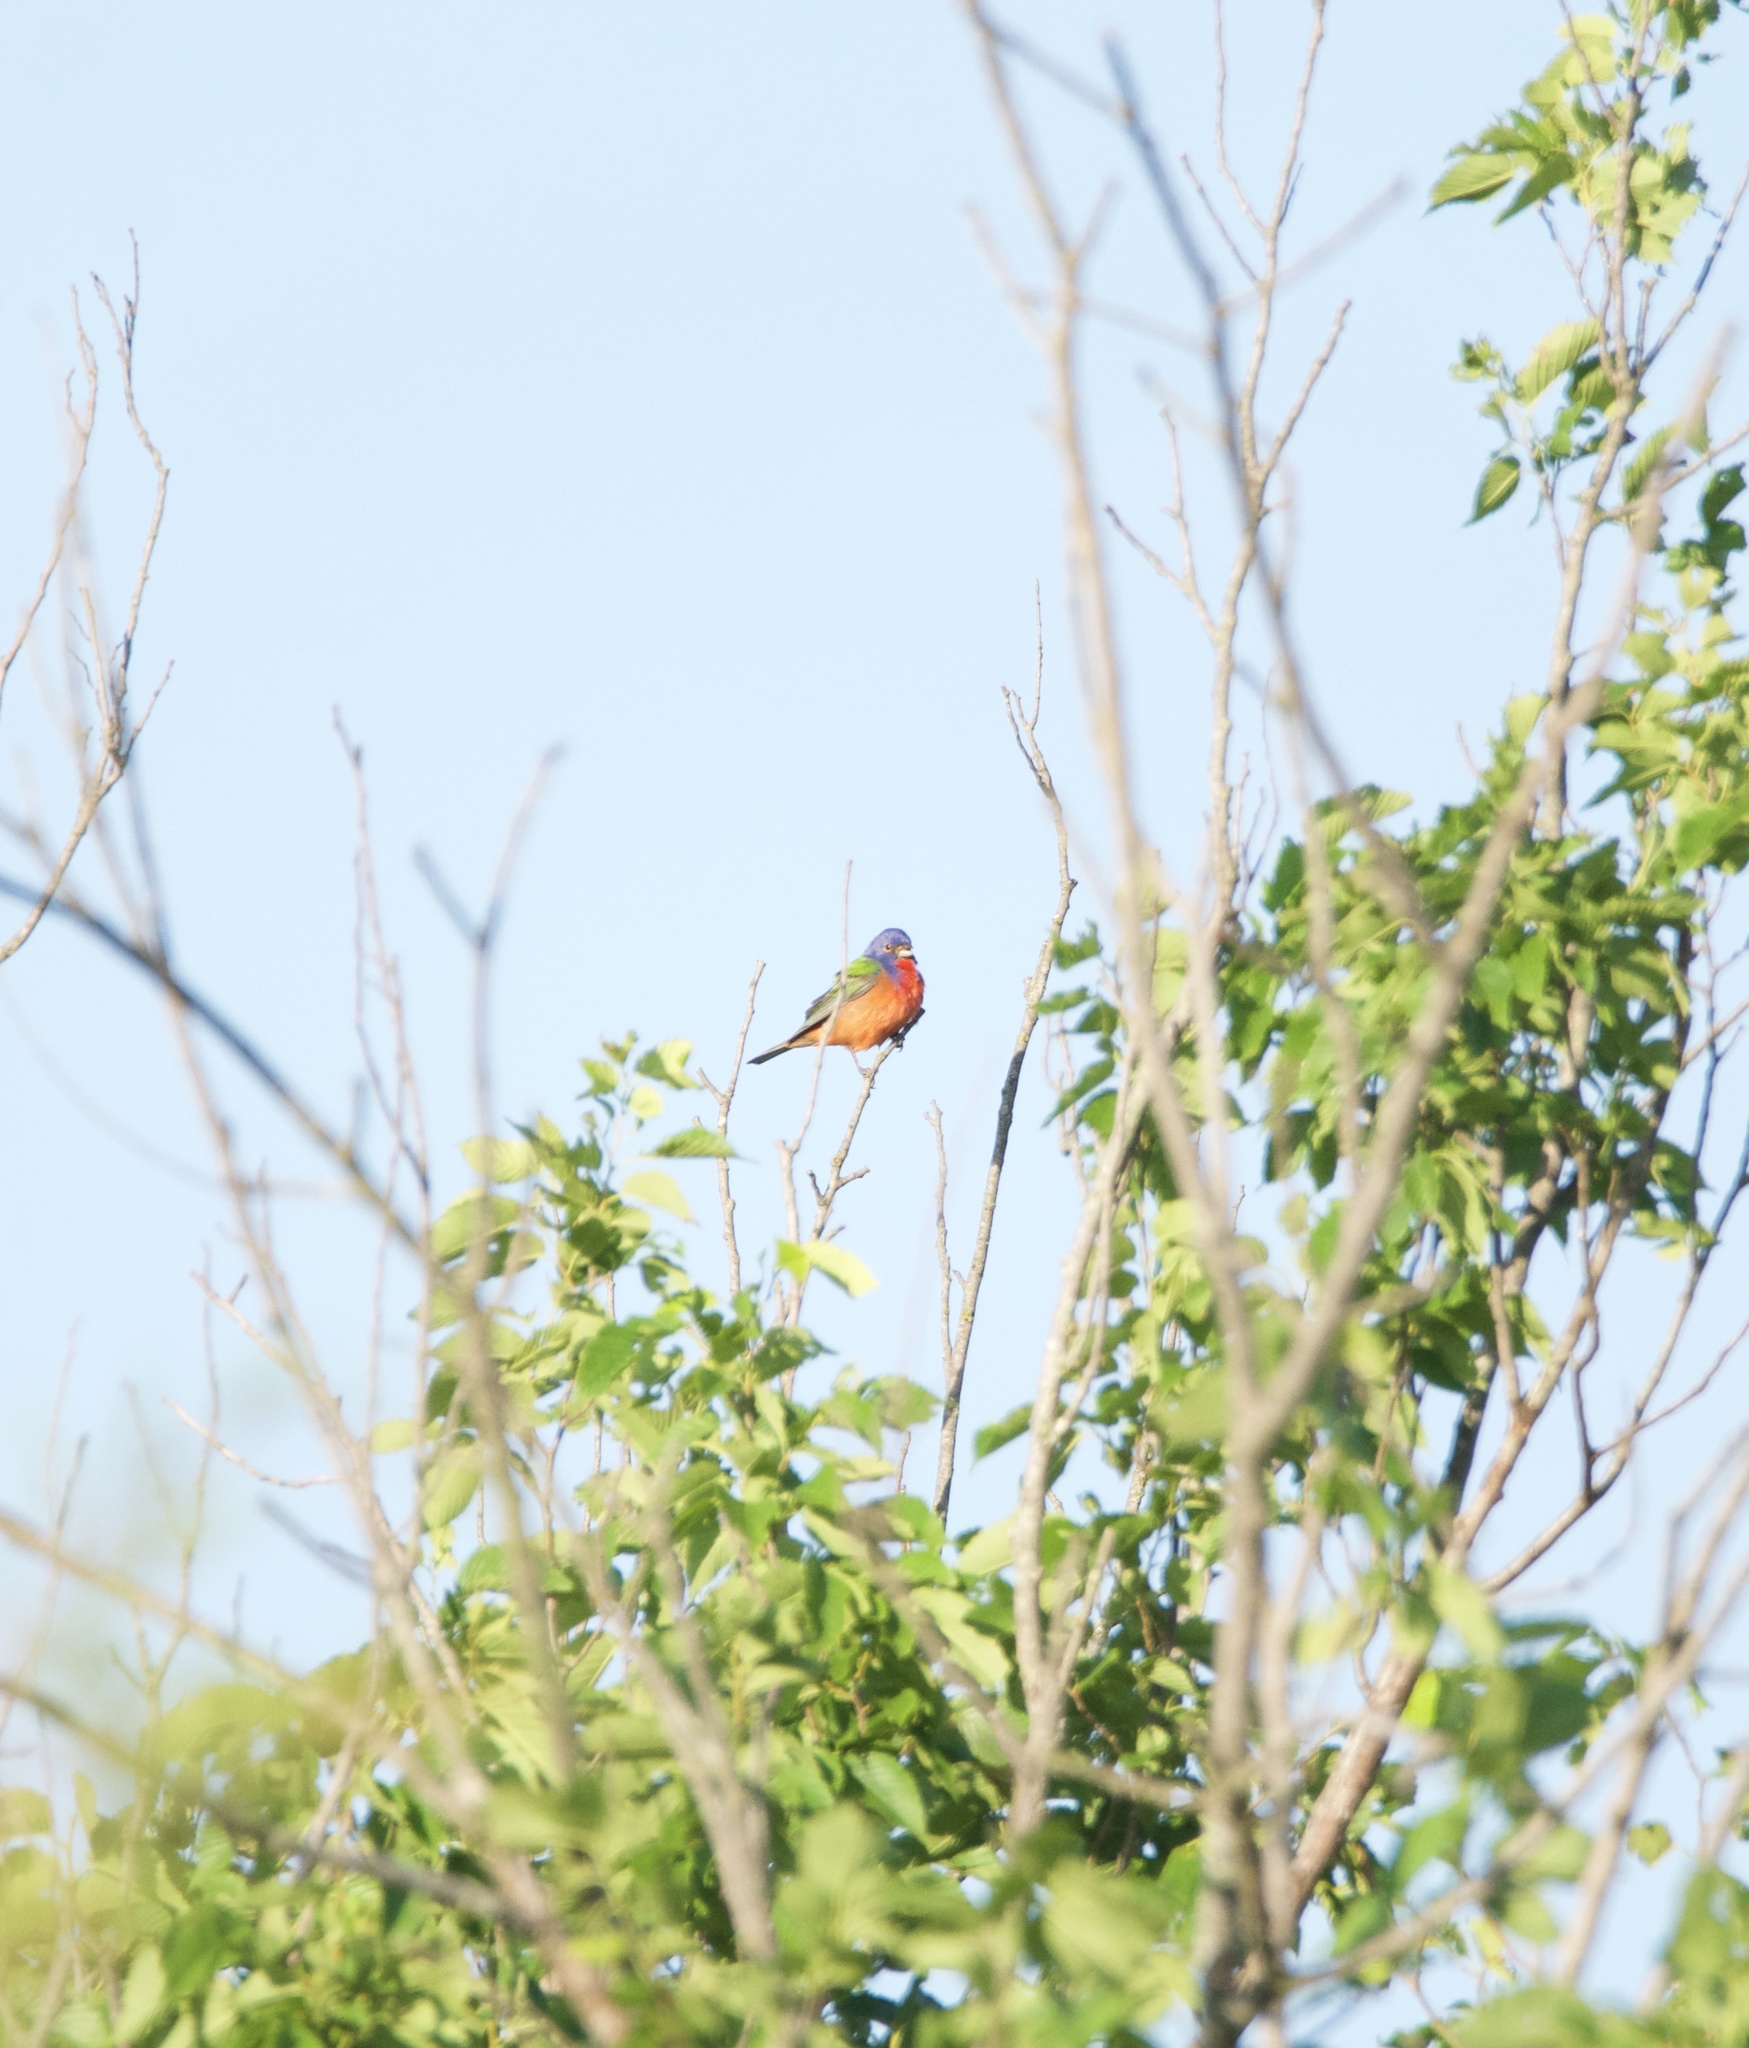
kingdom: Animalia
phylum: Chordata
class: Aves
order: Passeriformes
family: Cardinalidae
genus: Passerina
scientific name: Passerina ciris
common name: Painted bunting
